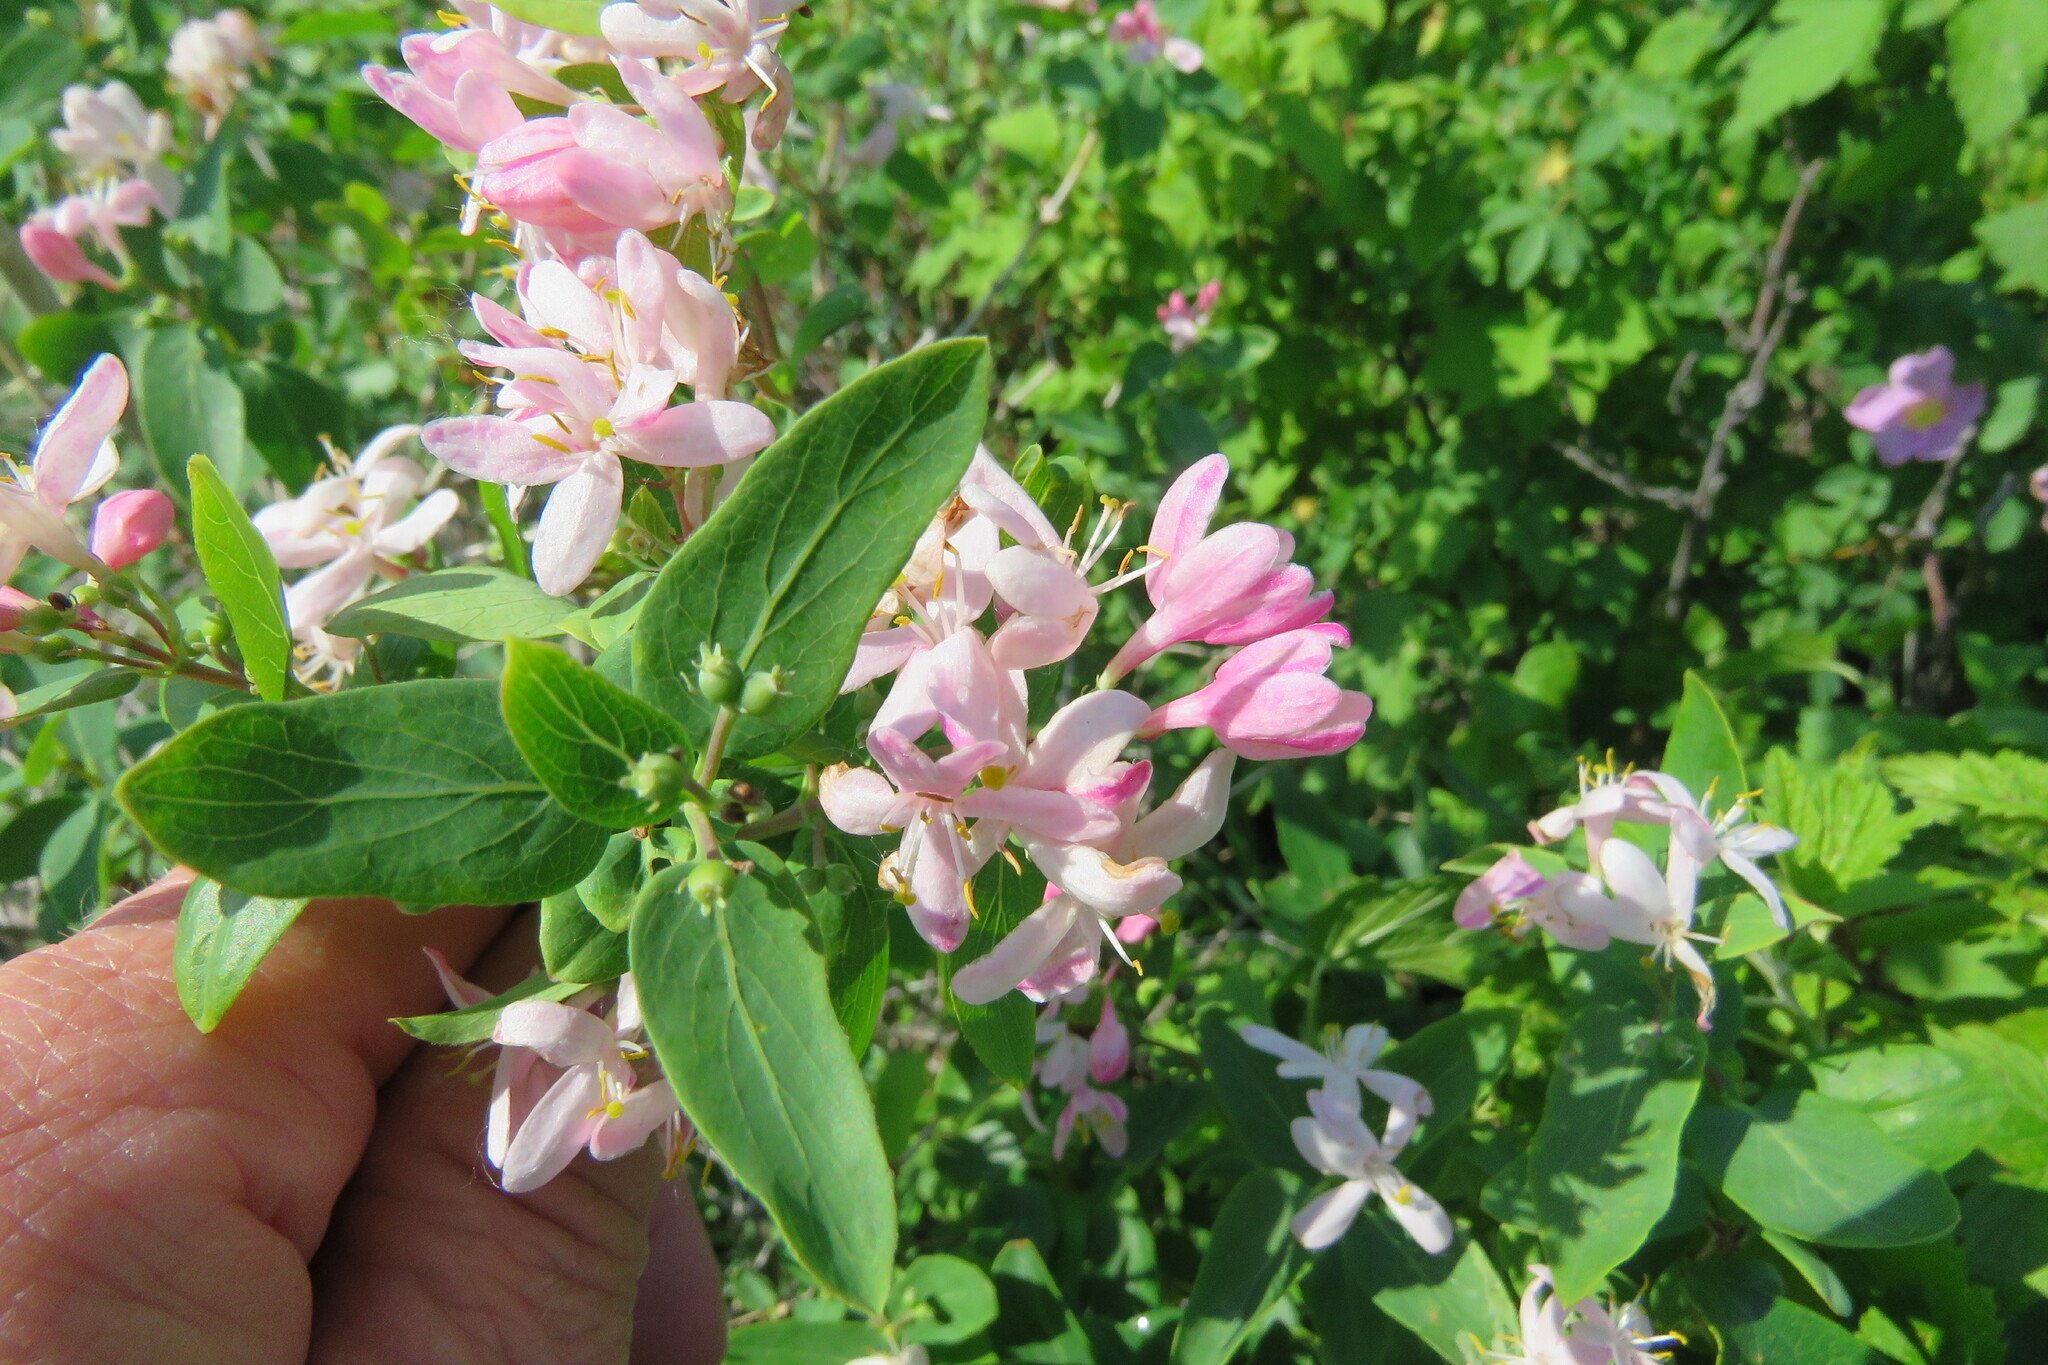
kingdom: Plantae
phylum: Tracheophyta
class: Magnoliopsida
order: Dipsacales
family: Caprifoliaceae
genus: Lonicera
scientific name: Lonicera tatarica
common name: Tatarian honeysuckle
